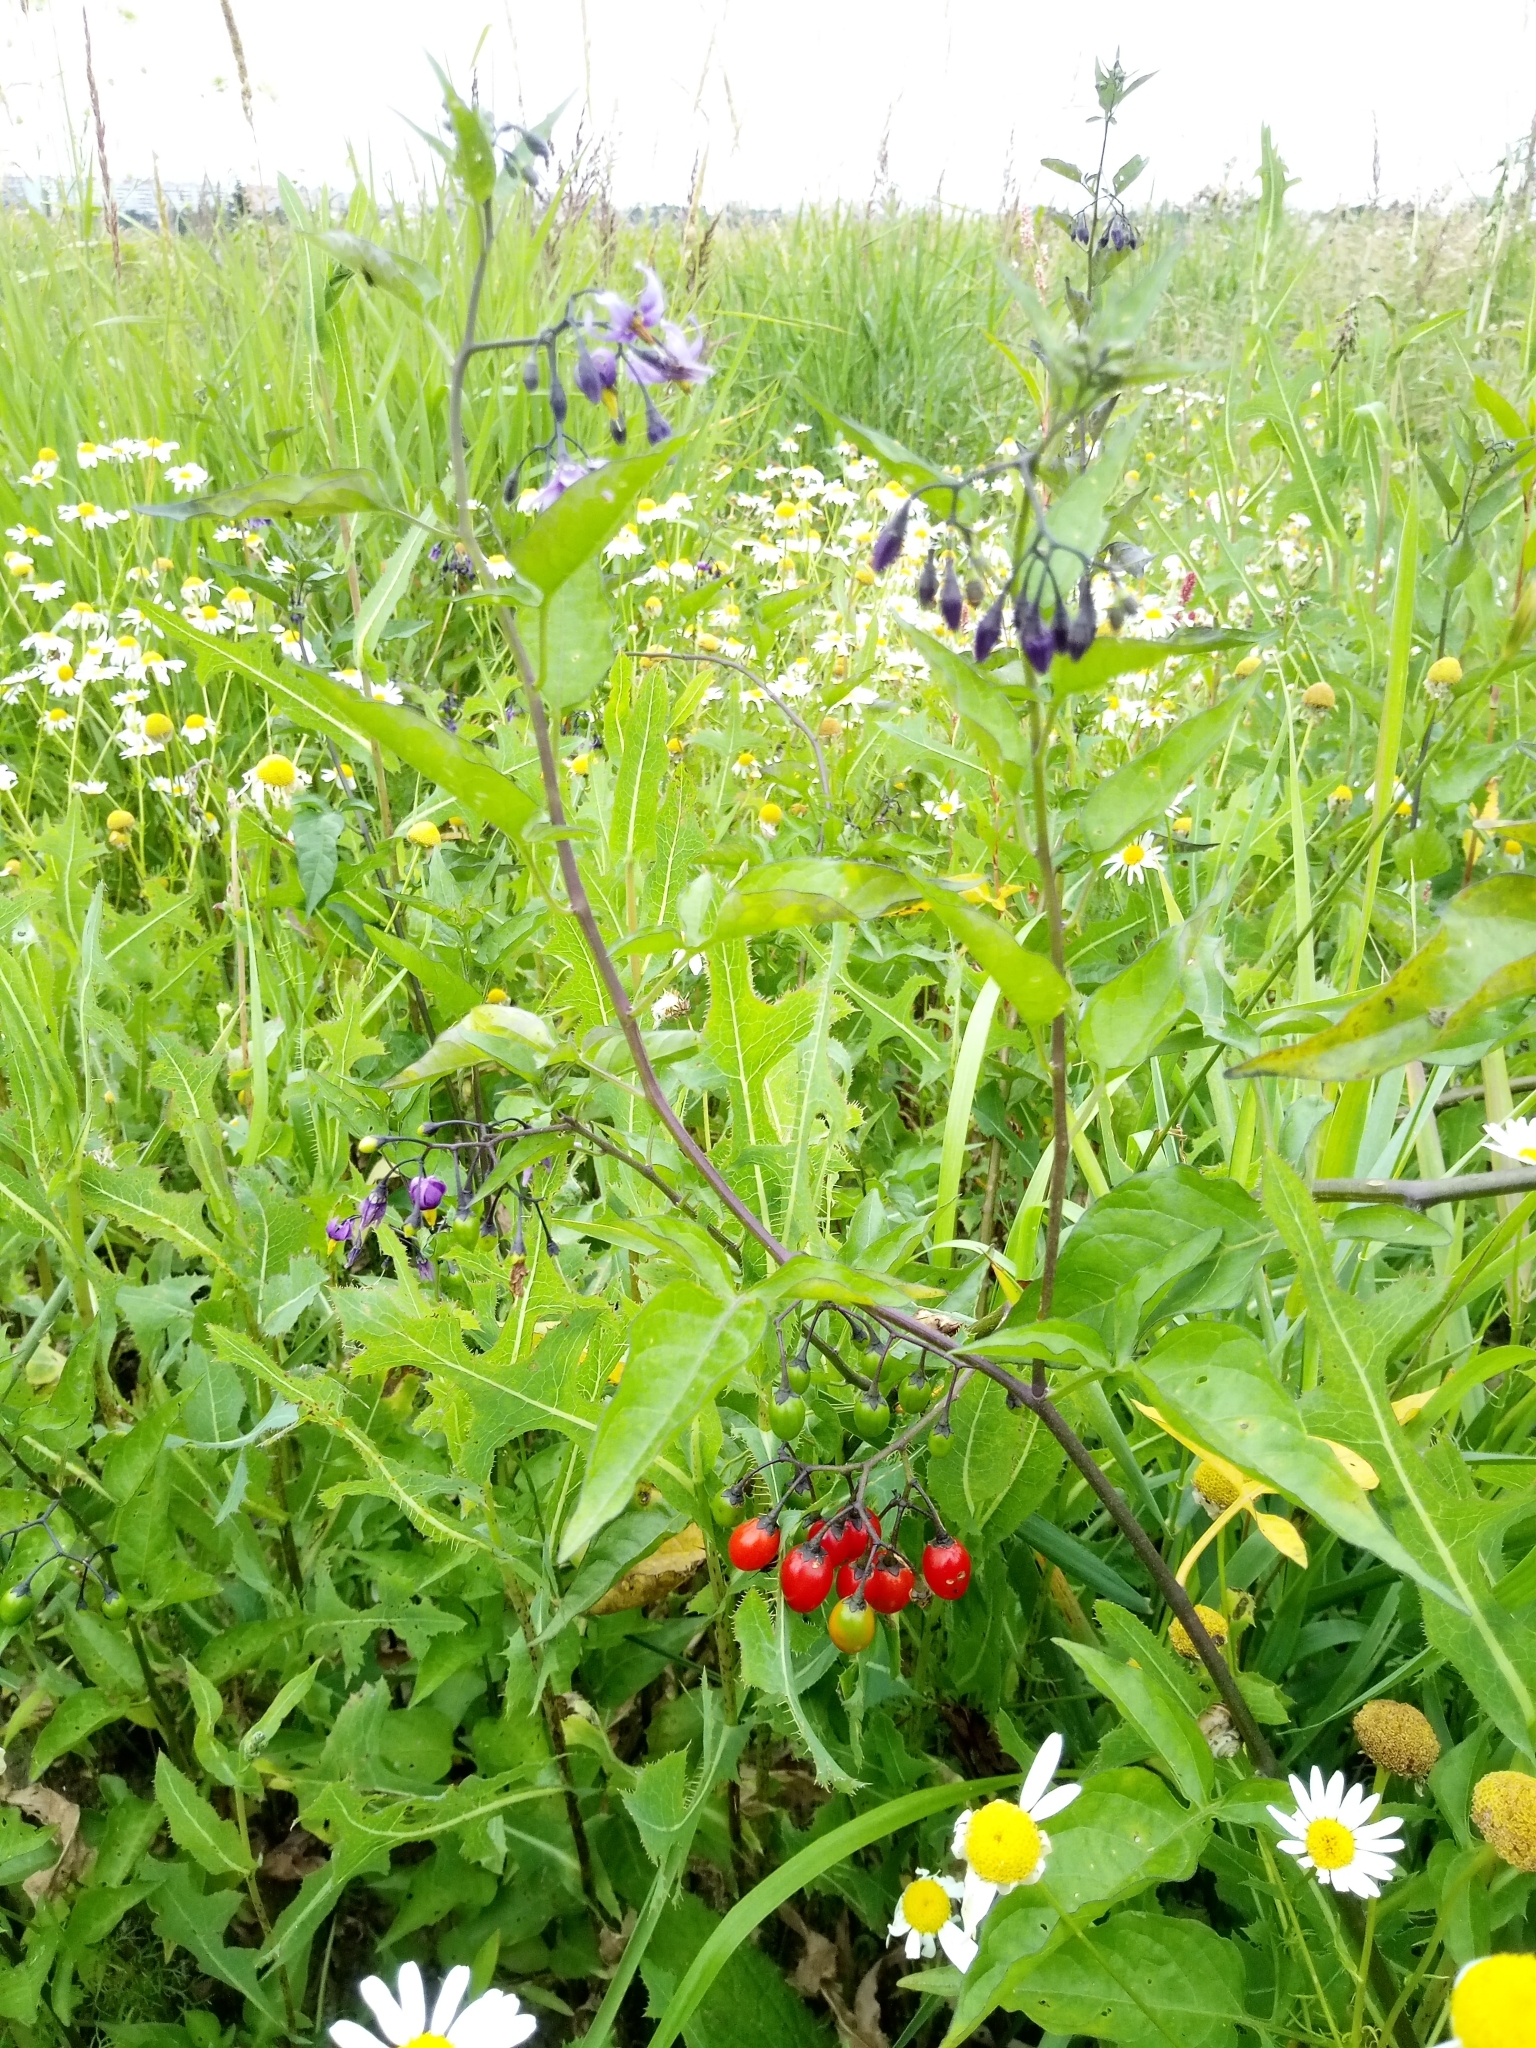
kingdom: Plantae
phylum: Tracheophyta
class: Magnoliopsida
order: Solanales
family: Solanaceae
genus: Solanum
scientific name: Solanum dulcamara
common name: Climbing nightshade
